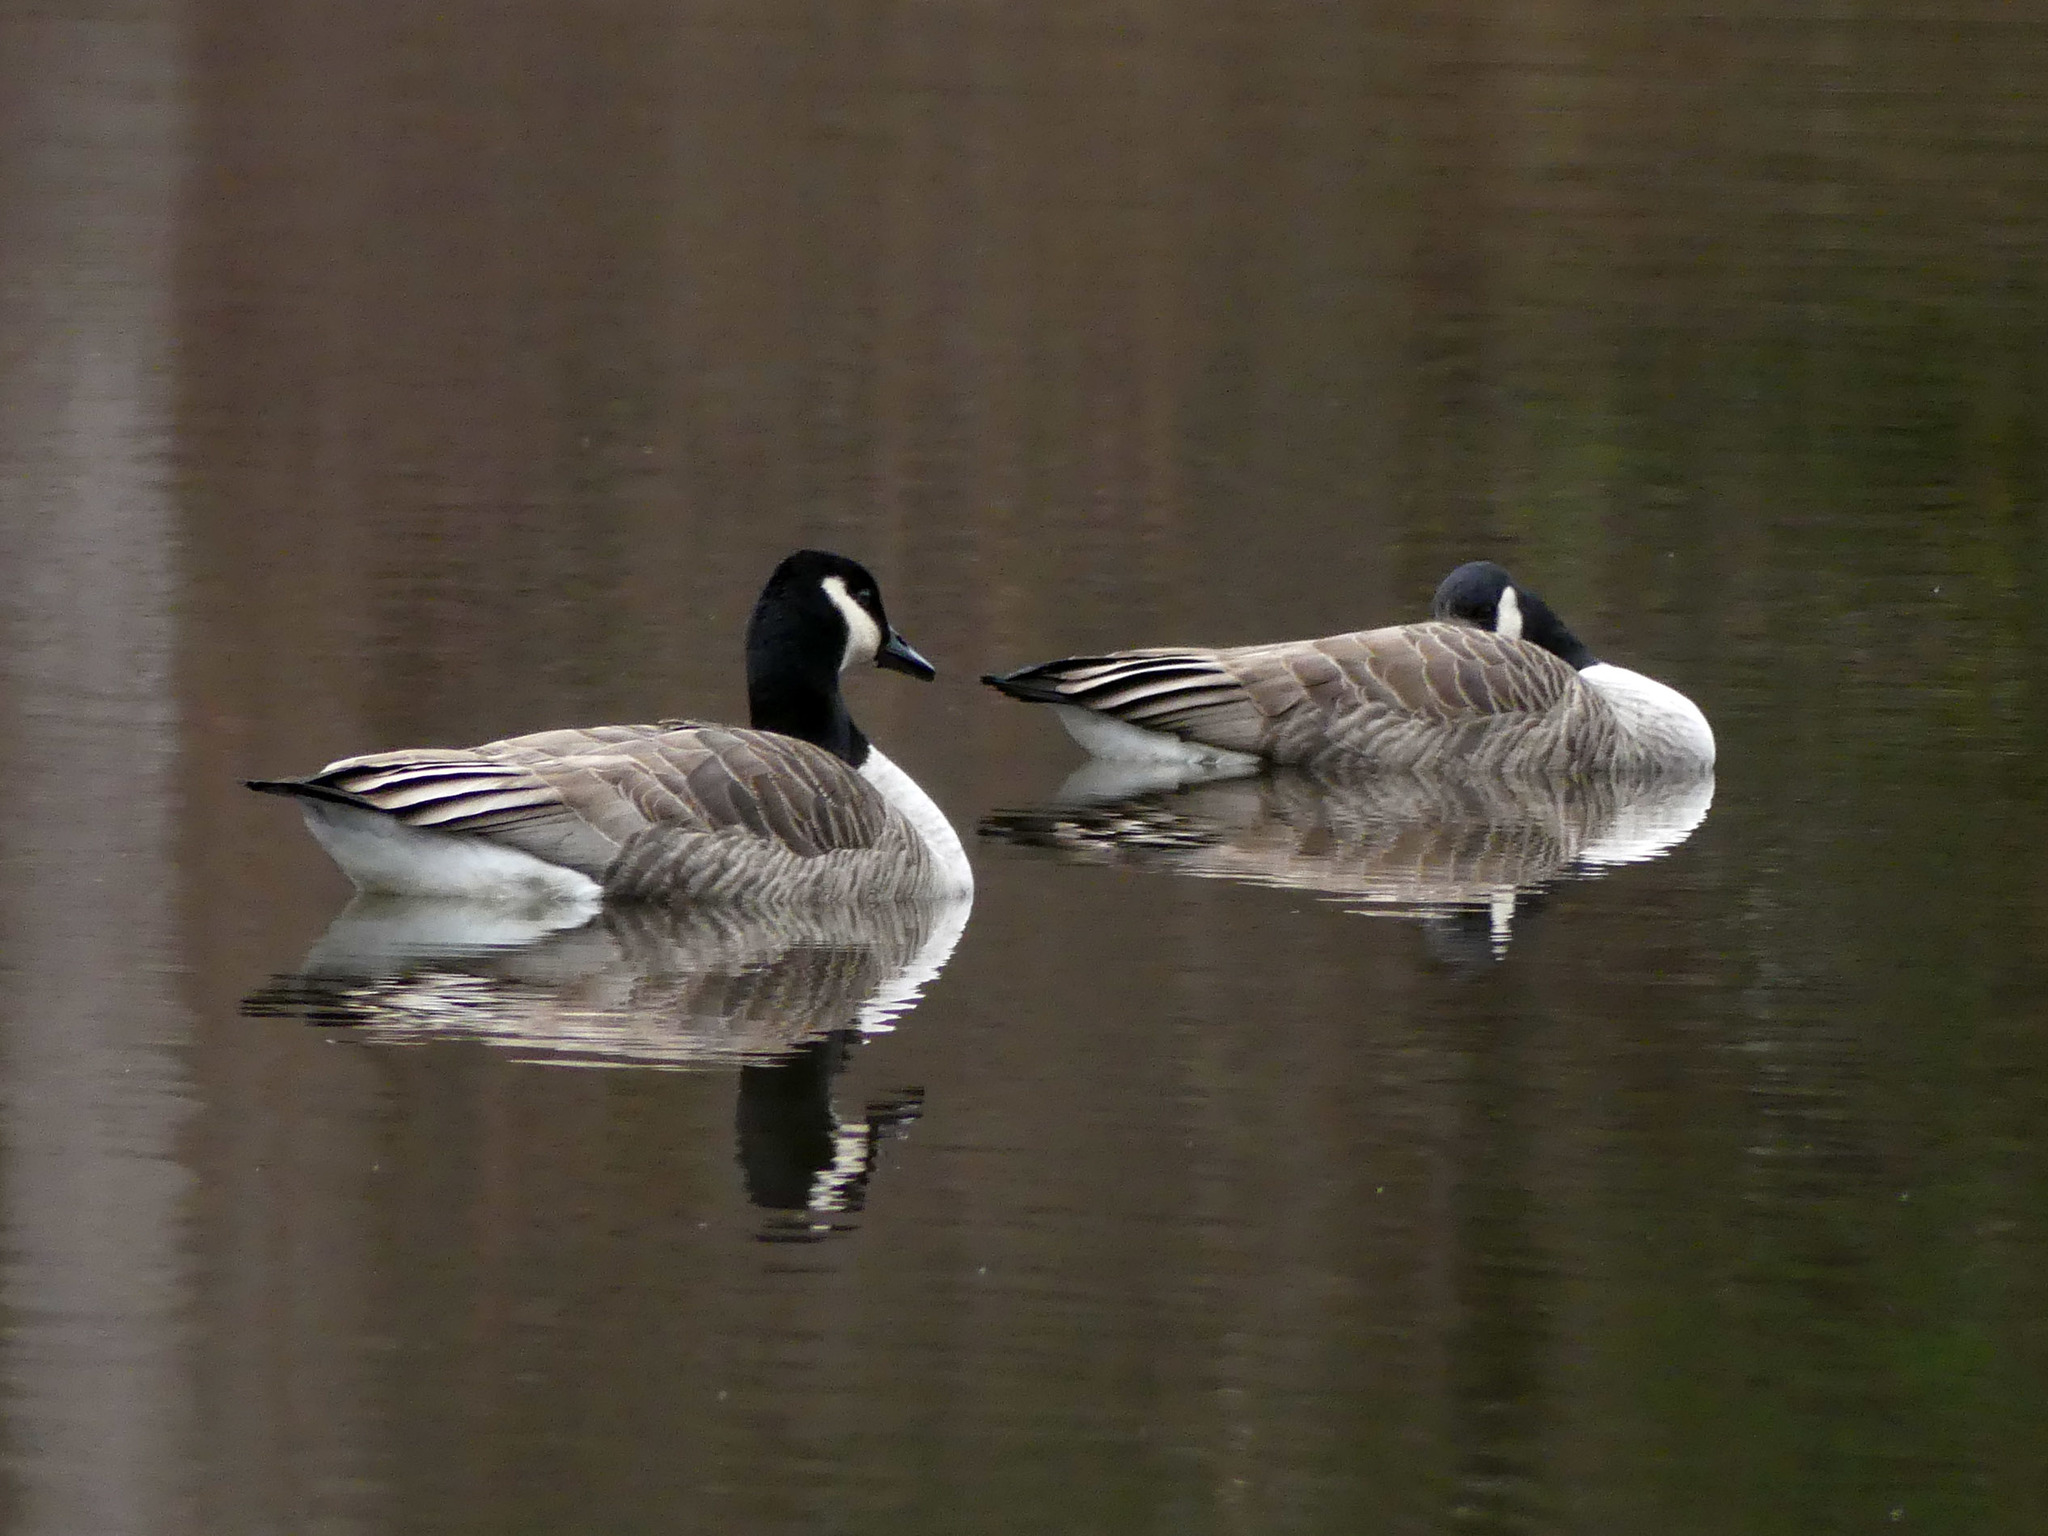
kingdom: Animalia
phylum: Chordata
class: Aves
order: Anseriformes
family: Anatidae
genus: Branta
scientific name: Branta canadensis
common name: Canada goose
